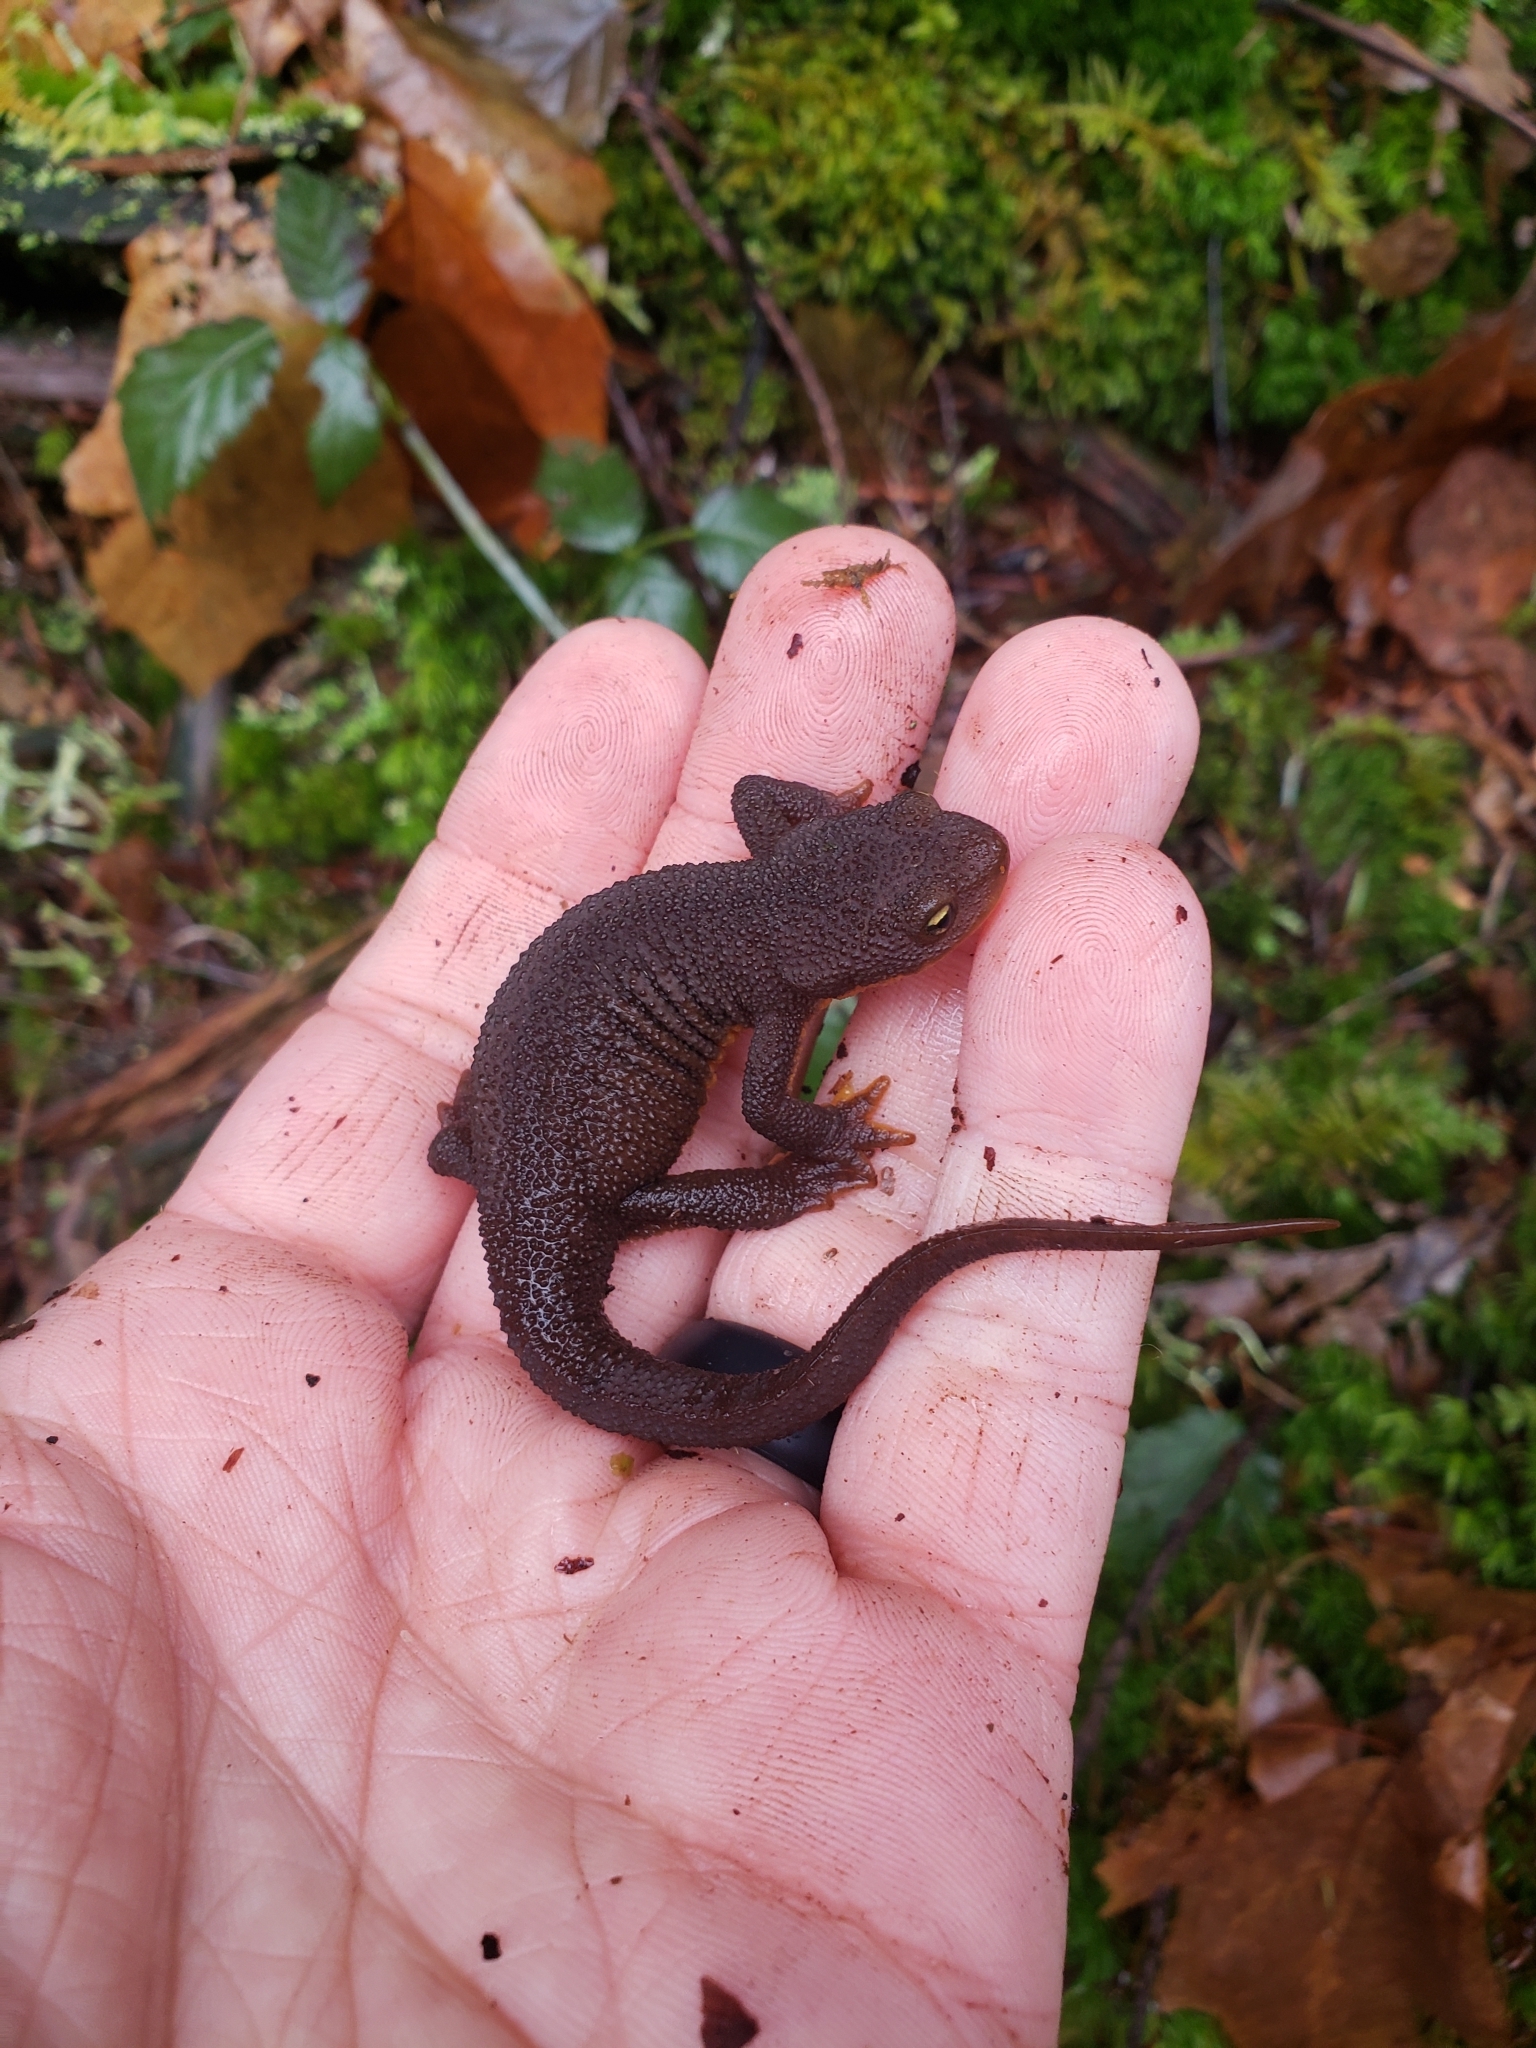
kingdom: Animalia
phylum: Chordata
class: Amphibia
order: Caudata
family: Salamandridae
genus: Taricha
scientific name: Taricha granulosa
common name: Roughskin newt
